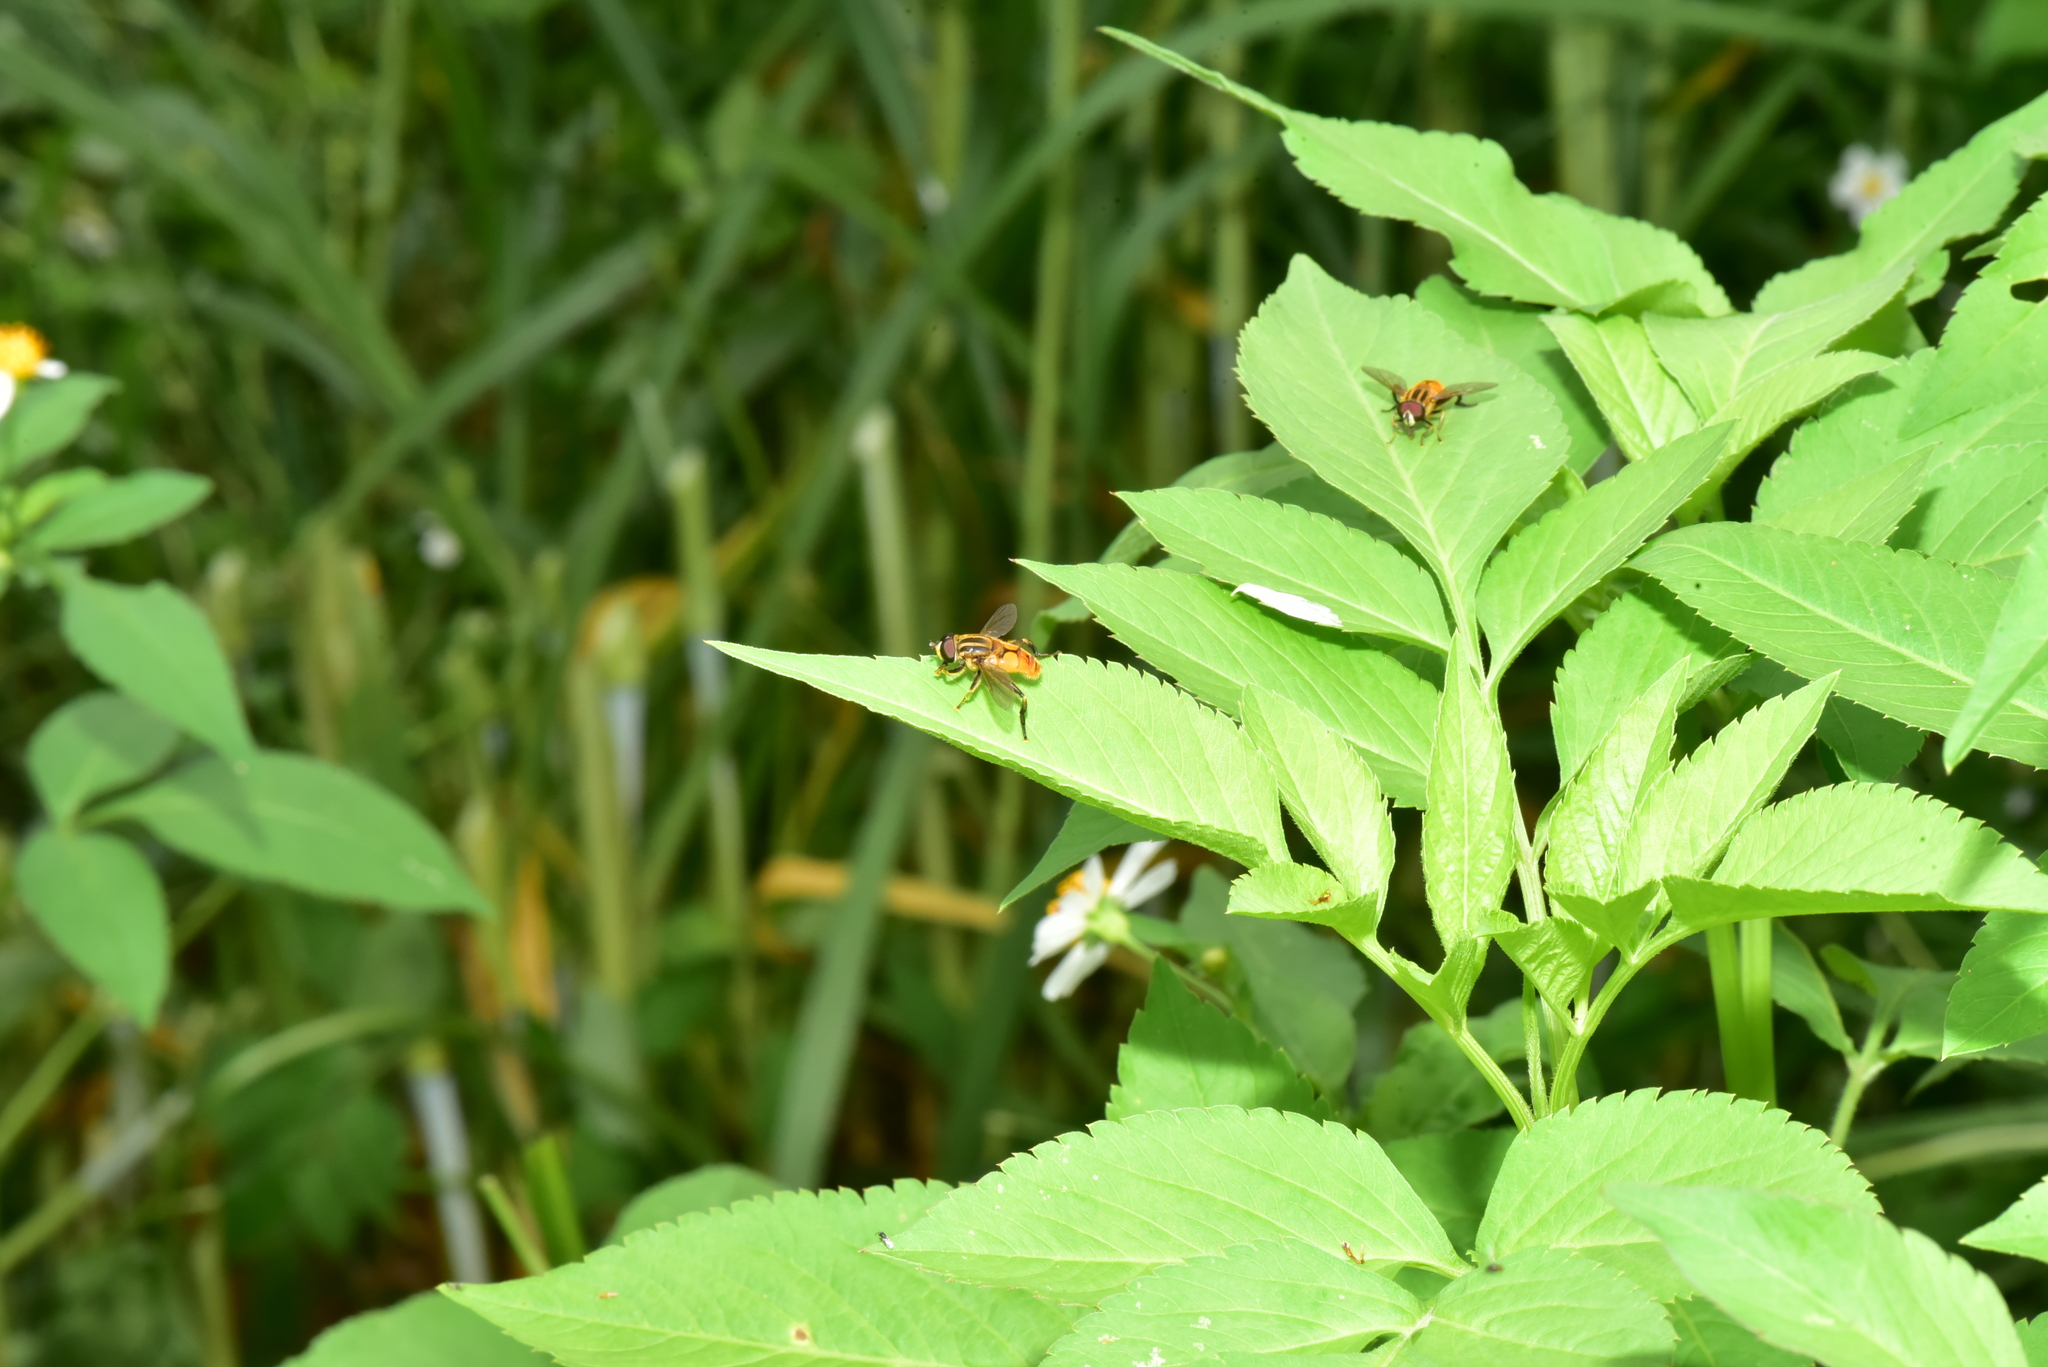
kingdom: Animalia
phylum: Arthropoda
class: Insecta
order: Diptera
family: Syrphidae
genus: Mesembrius
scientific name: Mesembrius bengalensis
